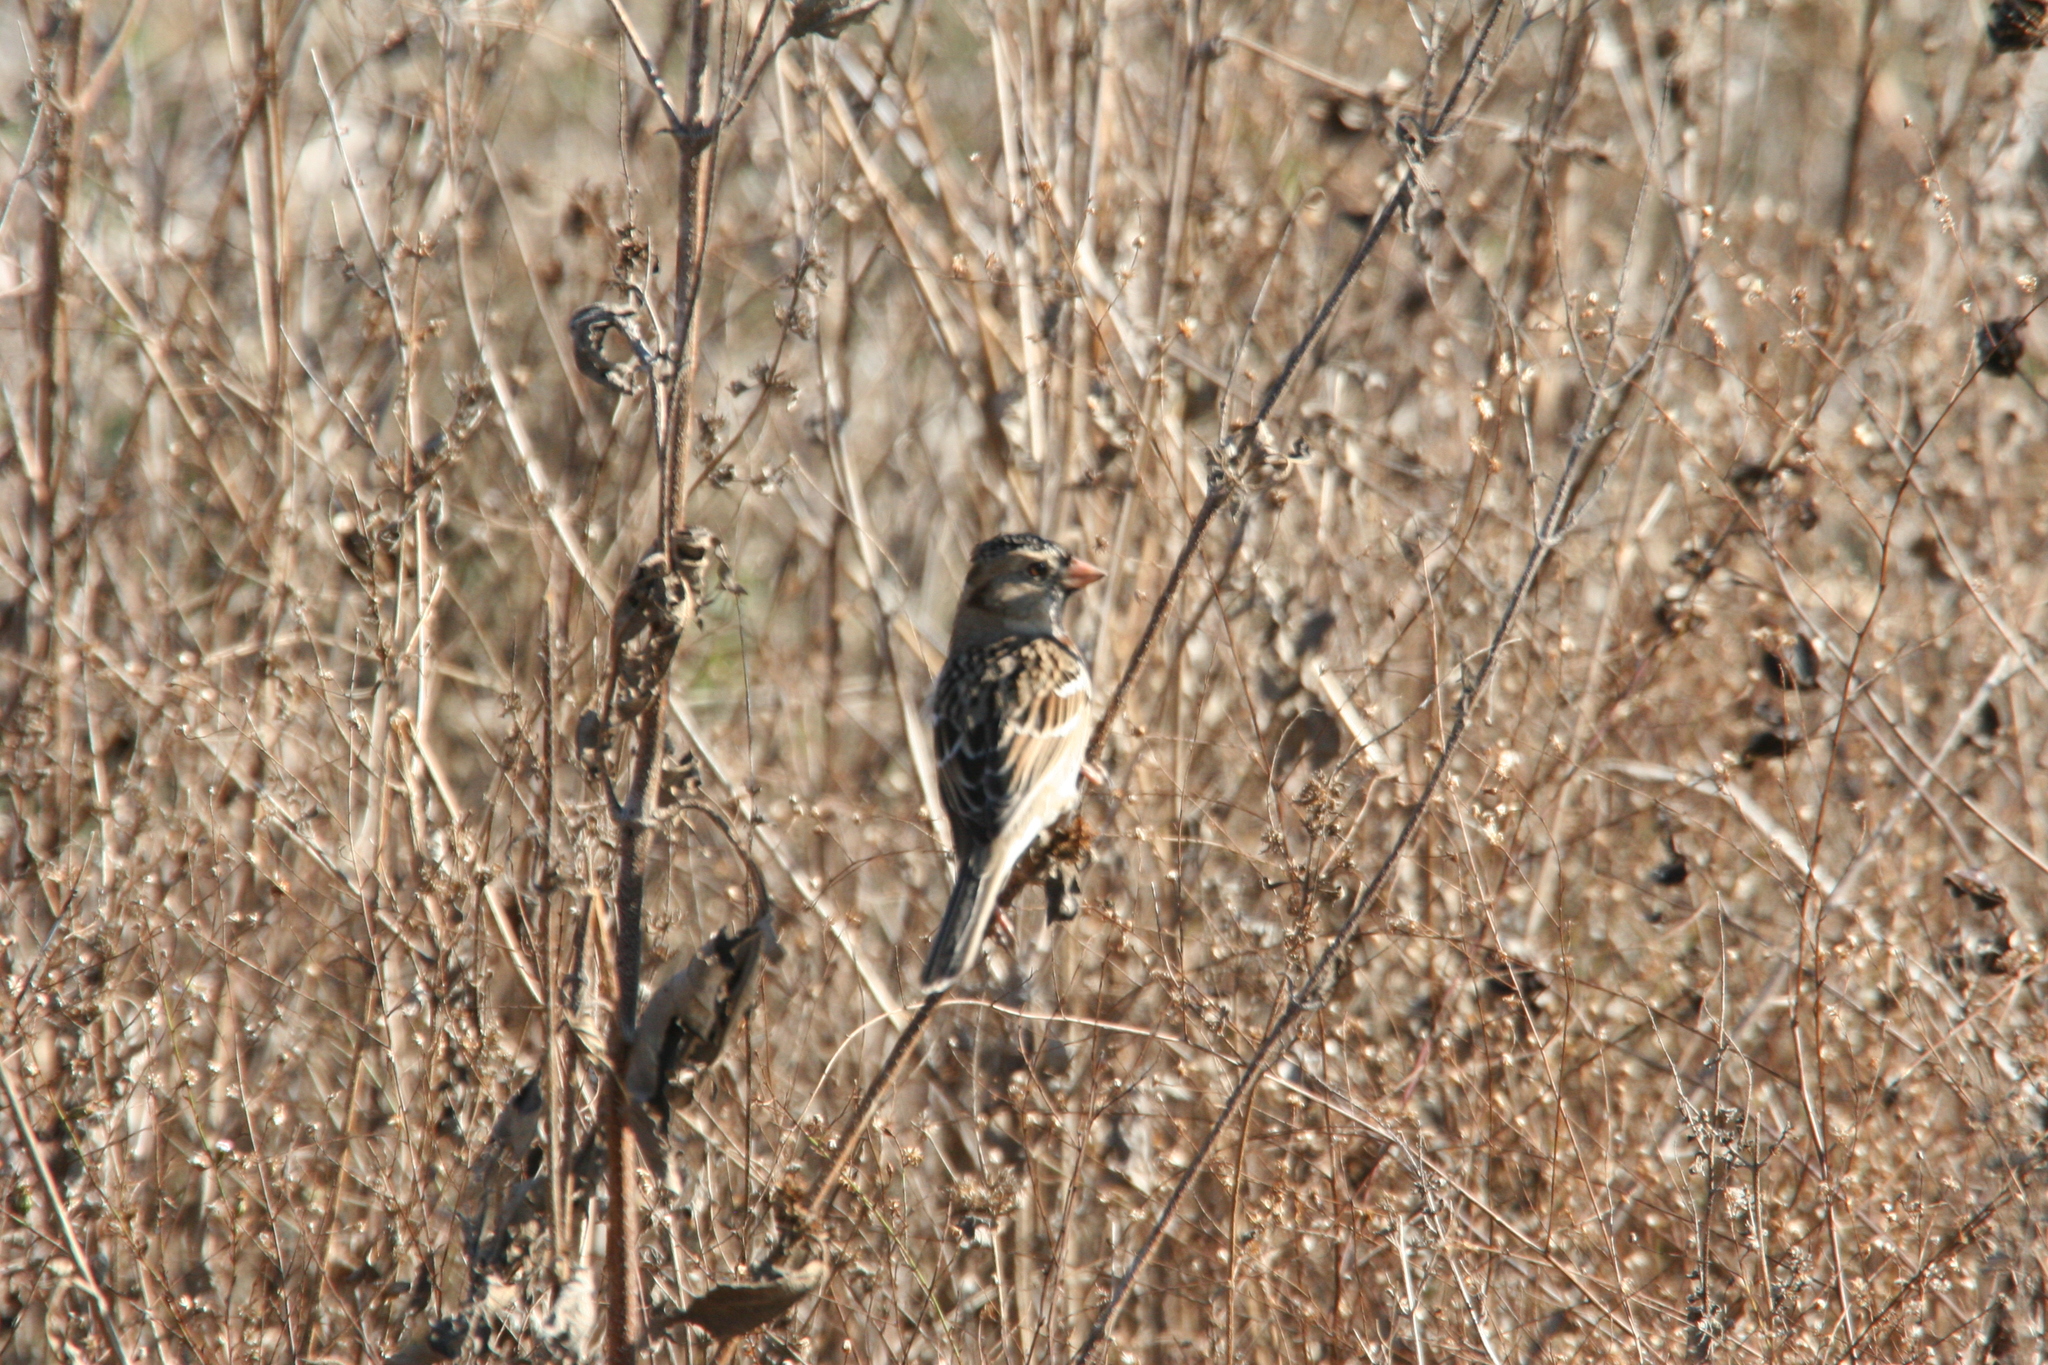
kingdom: Animalia
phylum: Chordata
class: Aves
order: Passeriformes
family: Passerellidae
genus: Zonotrichia
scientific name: Zonotrichia querula
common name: Harris's sparrow
